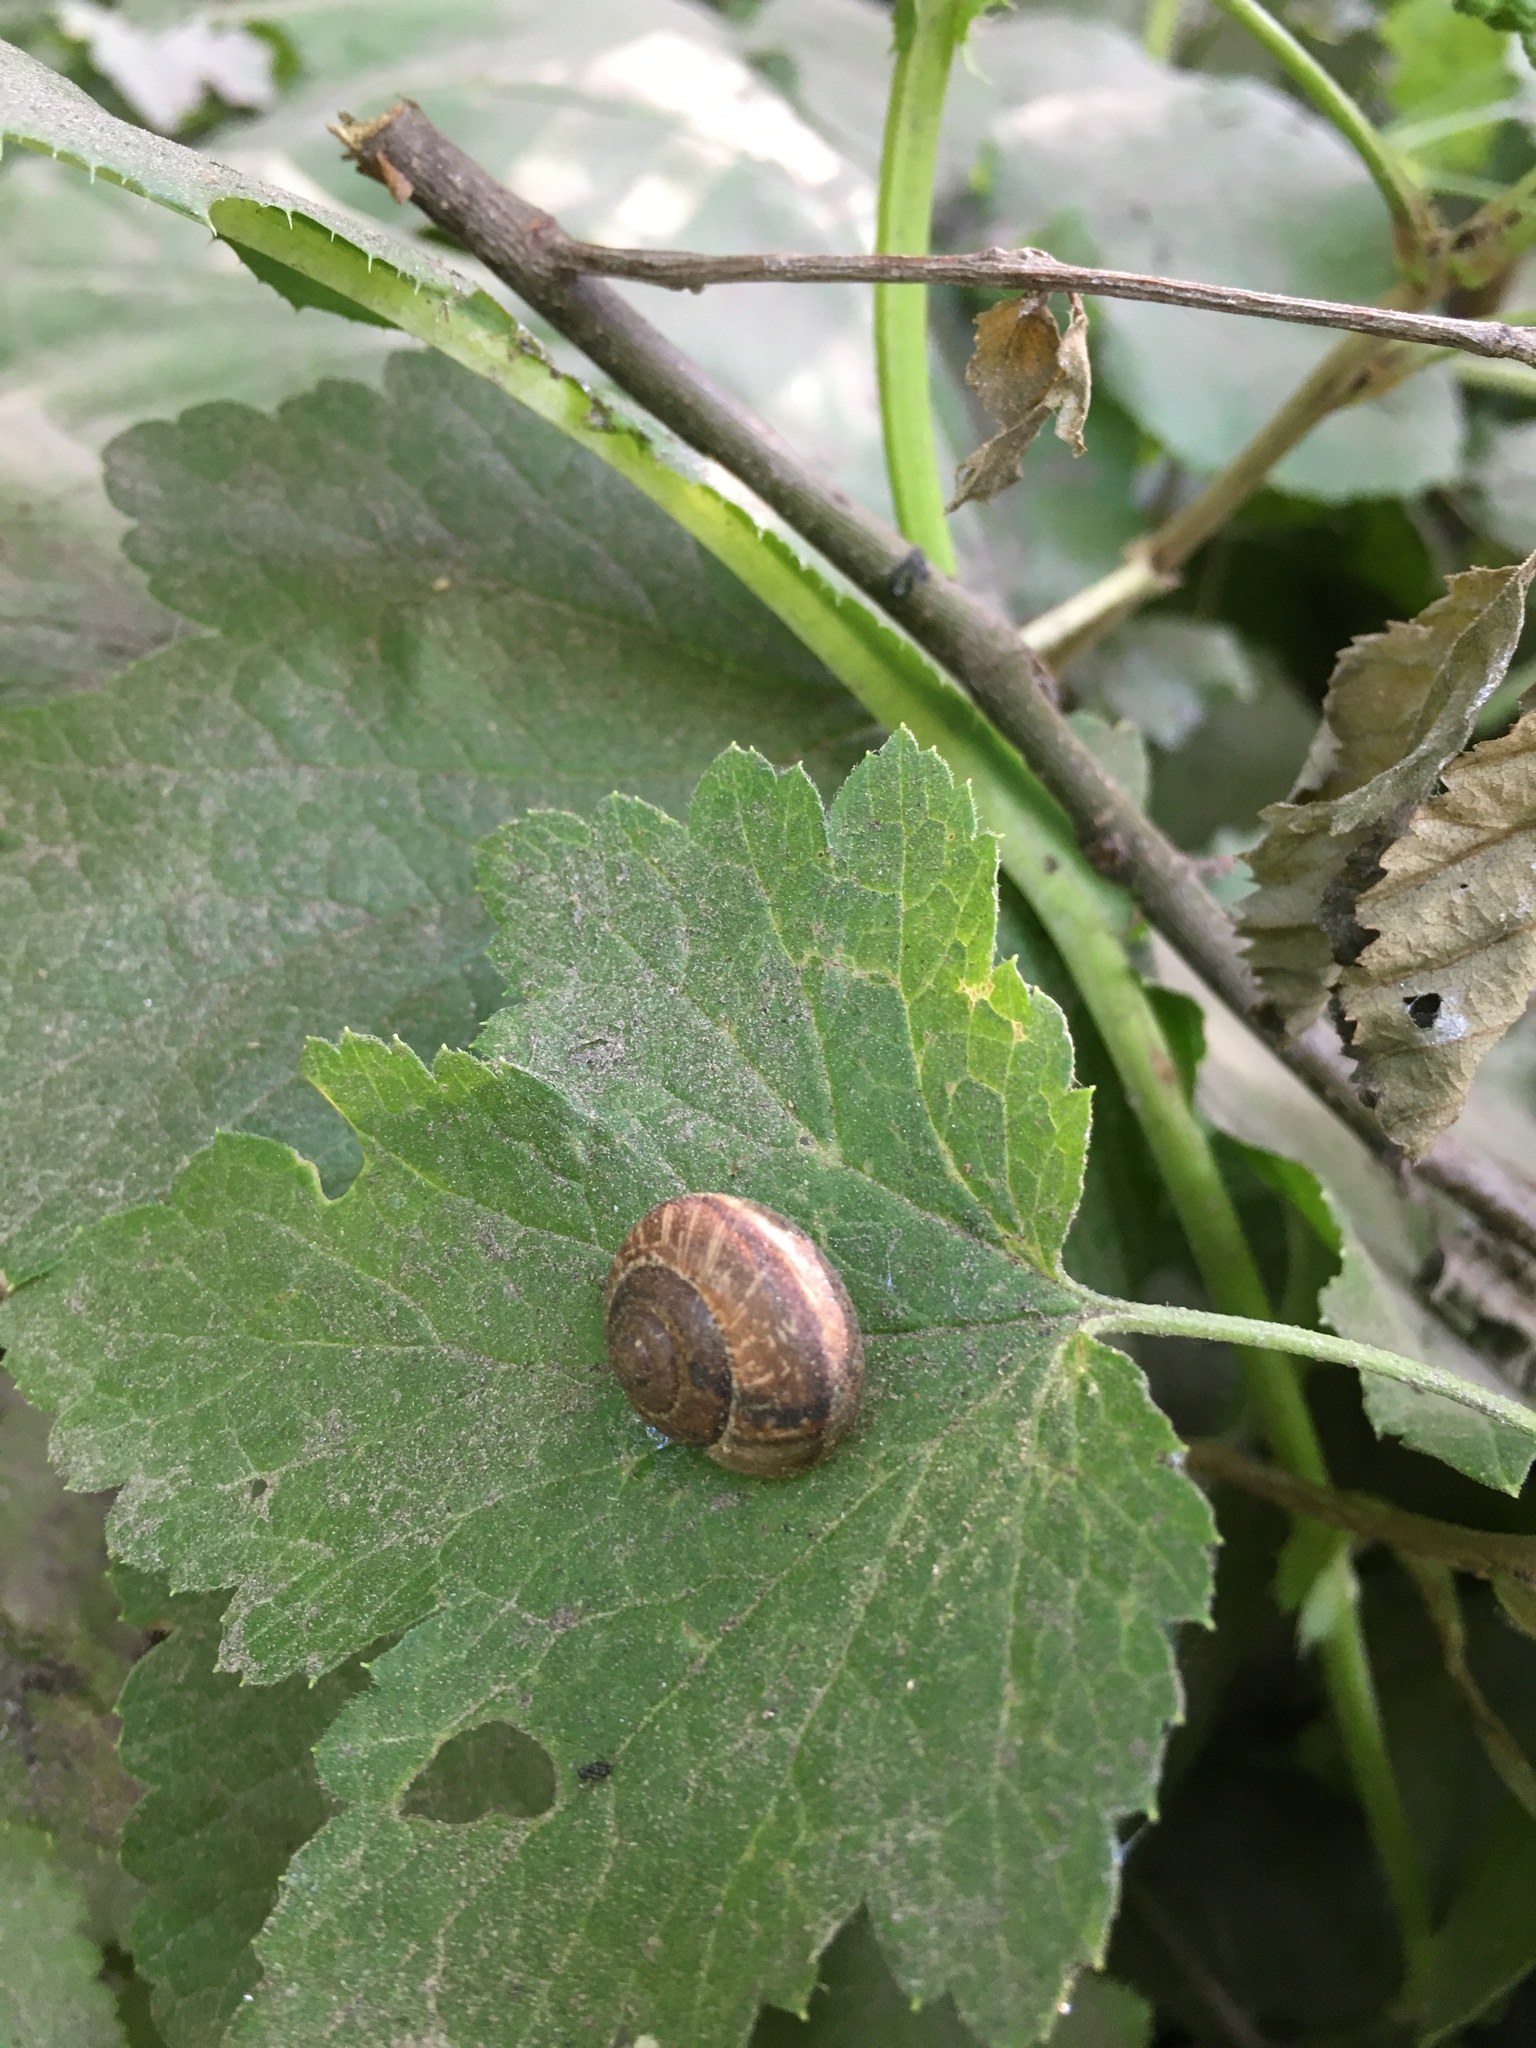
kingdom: Animalia
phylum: Mollusca
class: Gastropoda
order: Stylommatophora
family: Helicidae
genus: Arianta
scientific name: Arianta arbustorum
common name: Copse snail
